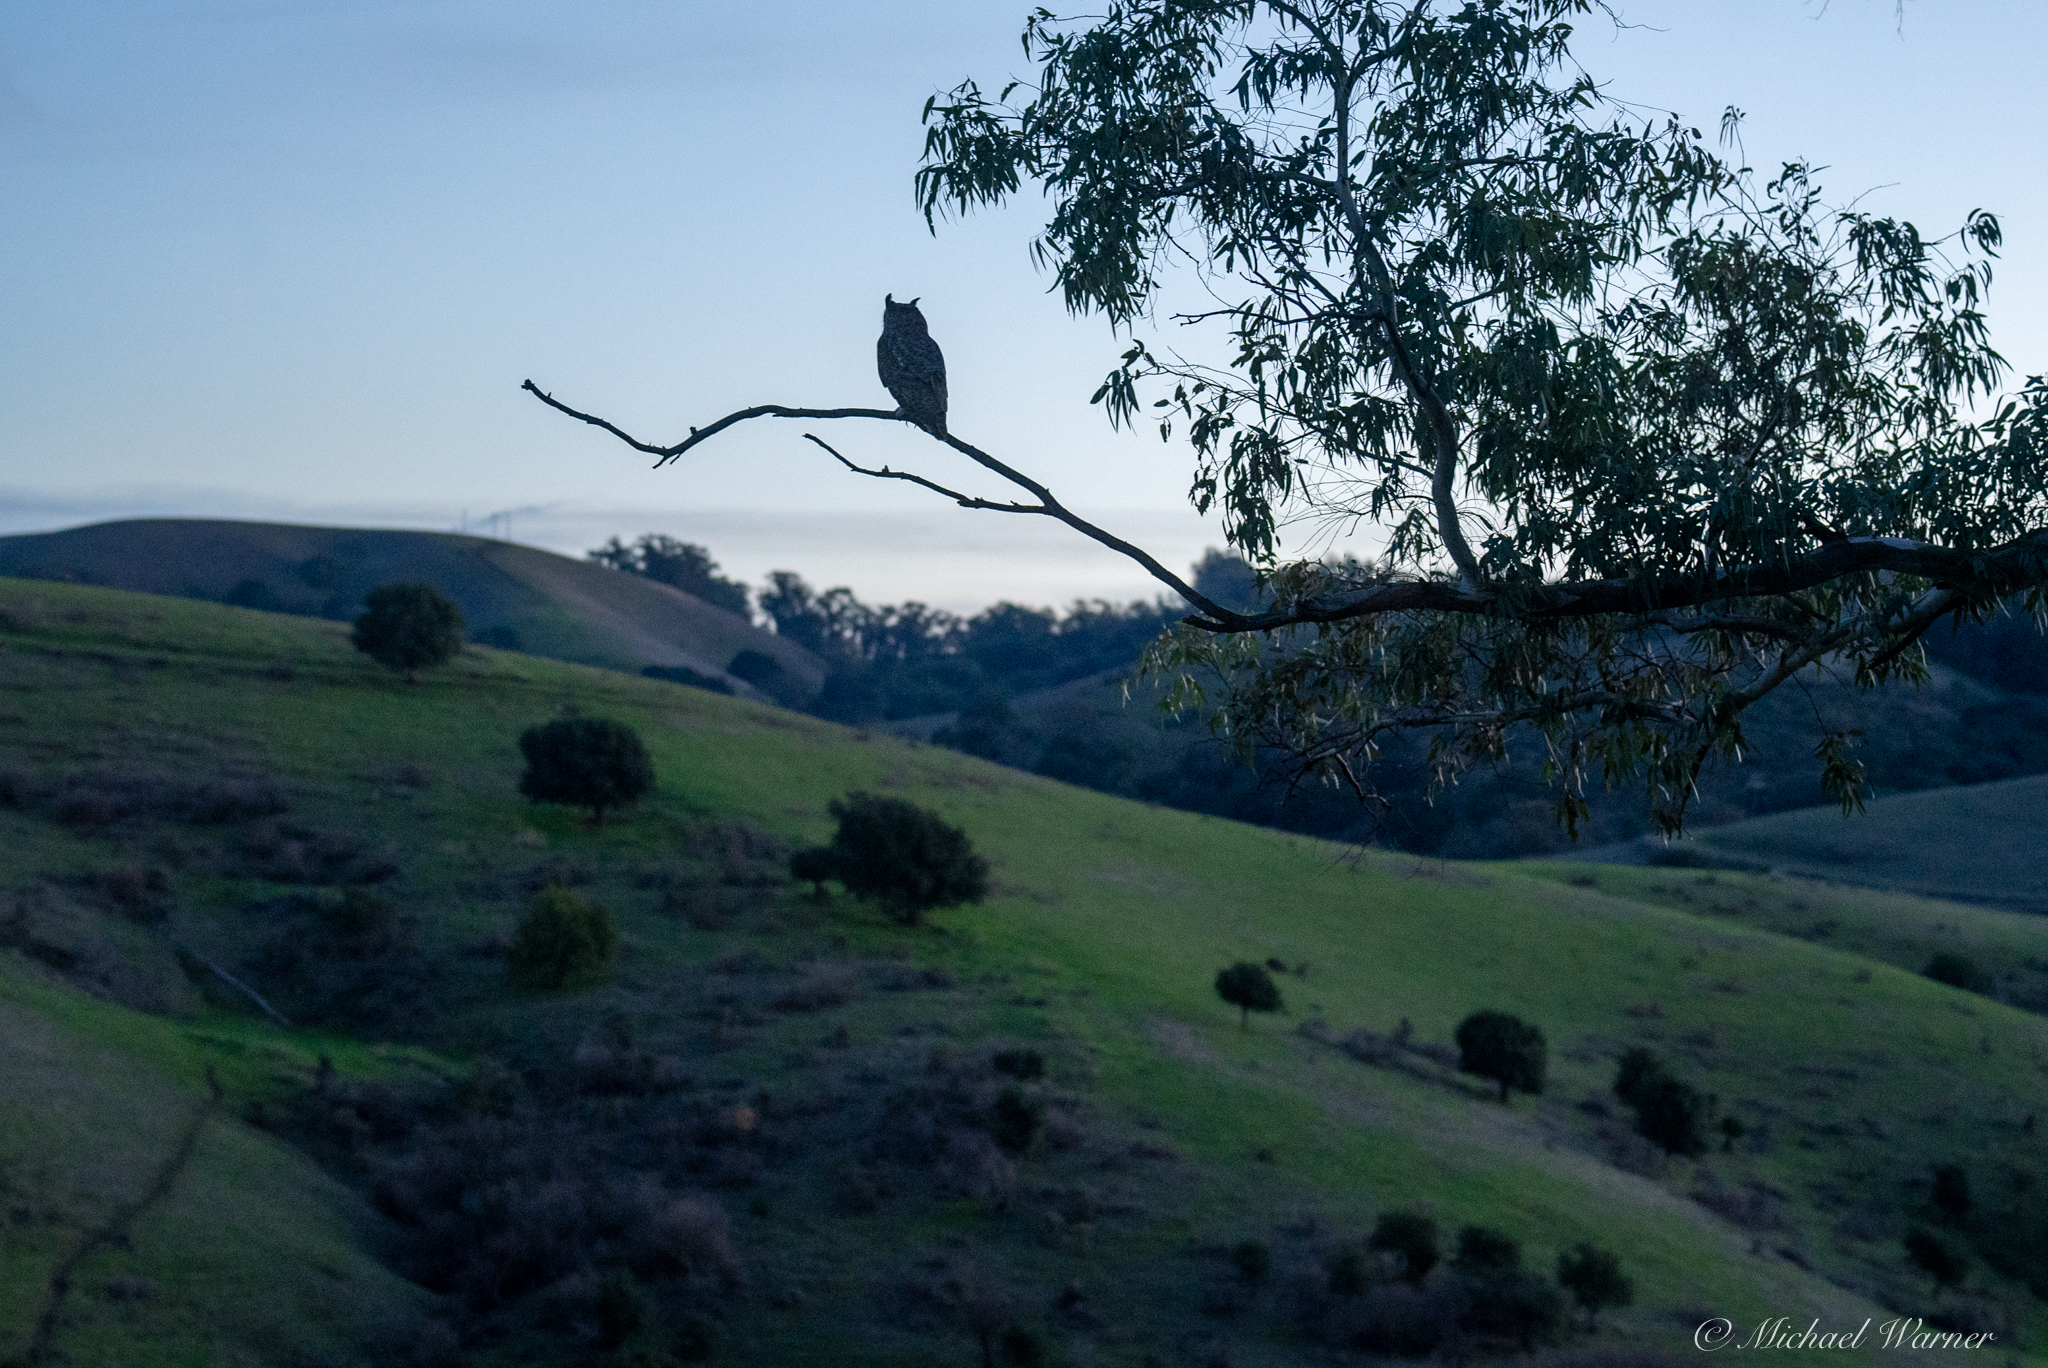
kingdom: Animalia
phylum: Chordata
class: Aves
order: Strigiformes
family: Strigidae
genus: Bubo
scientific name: Bubo virginianus
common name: Great horned owl
